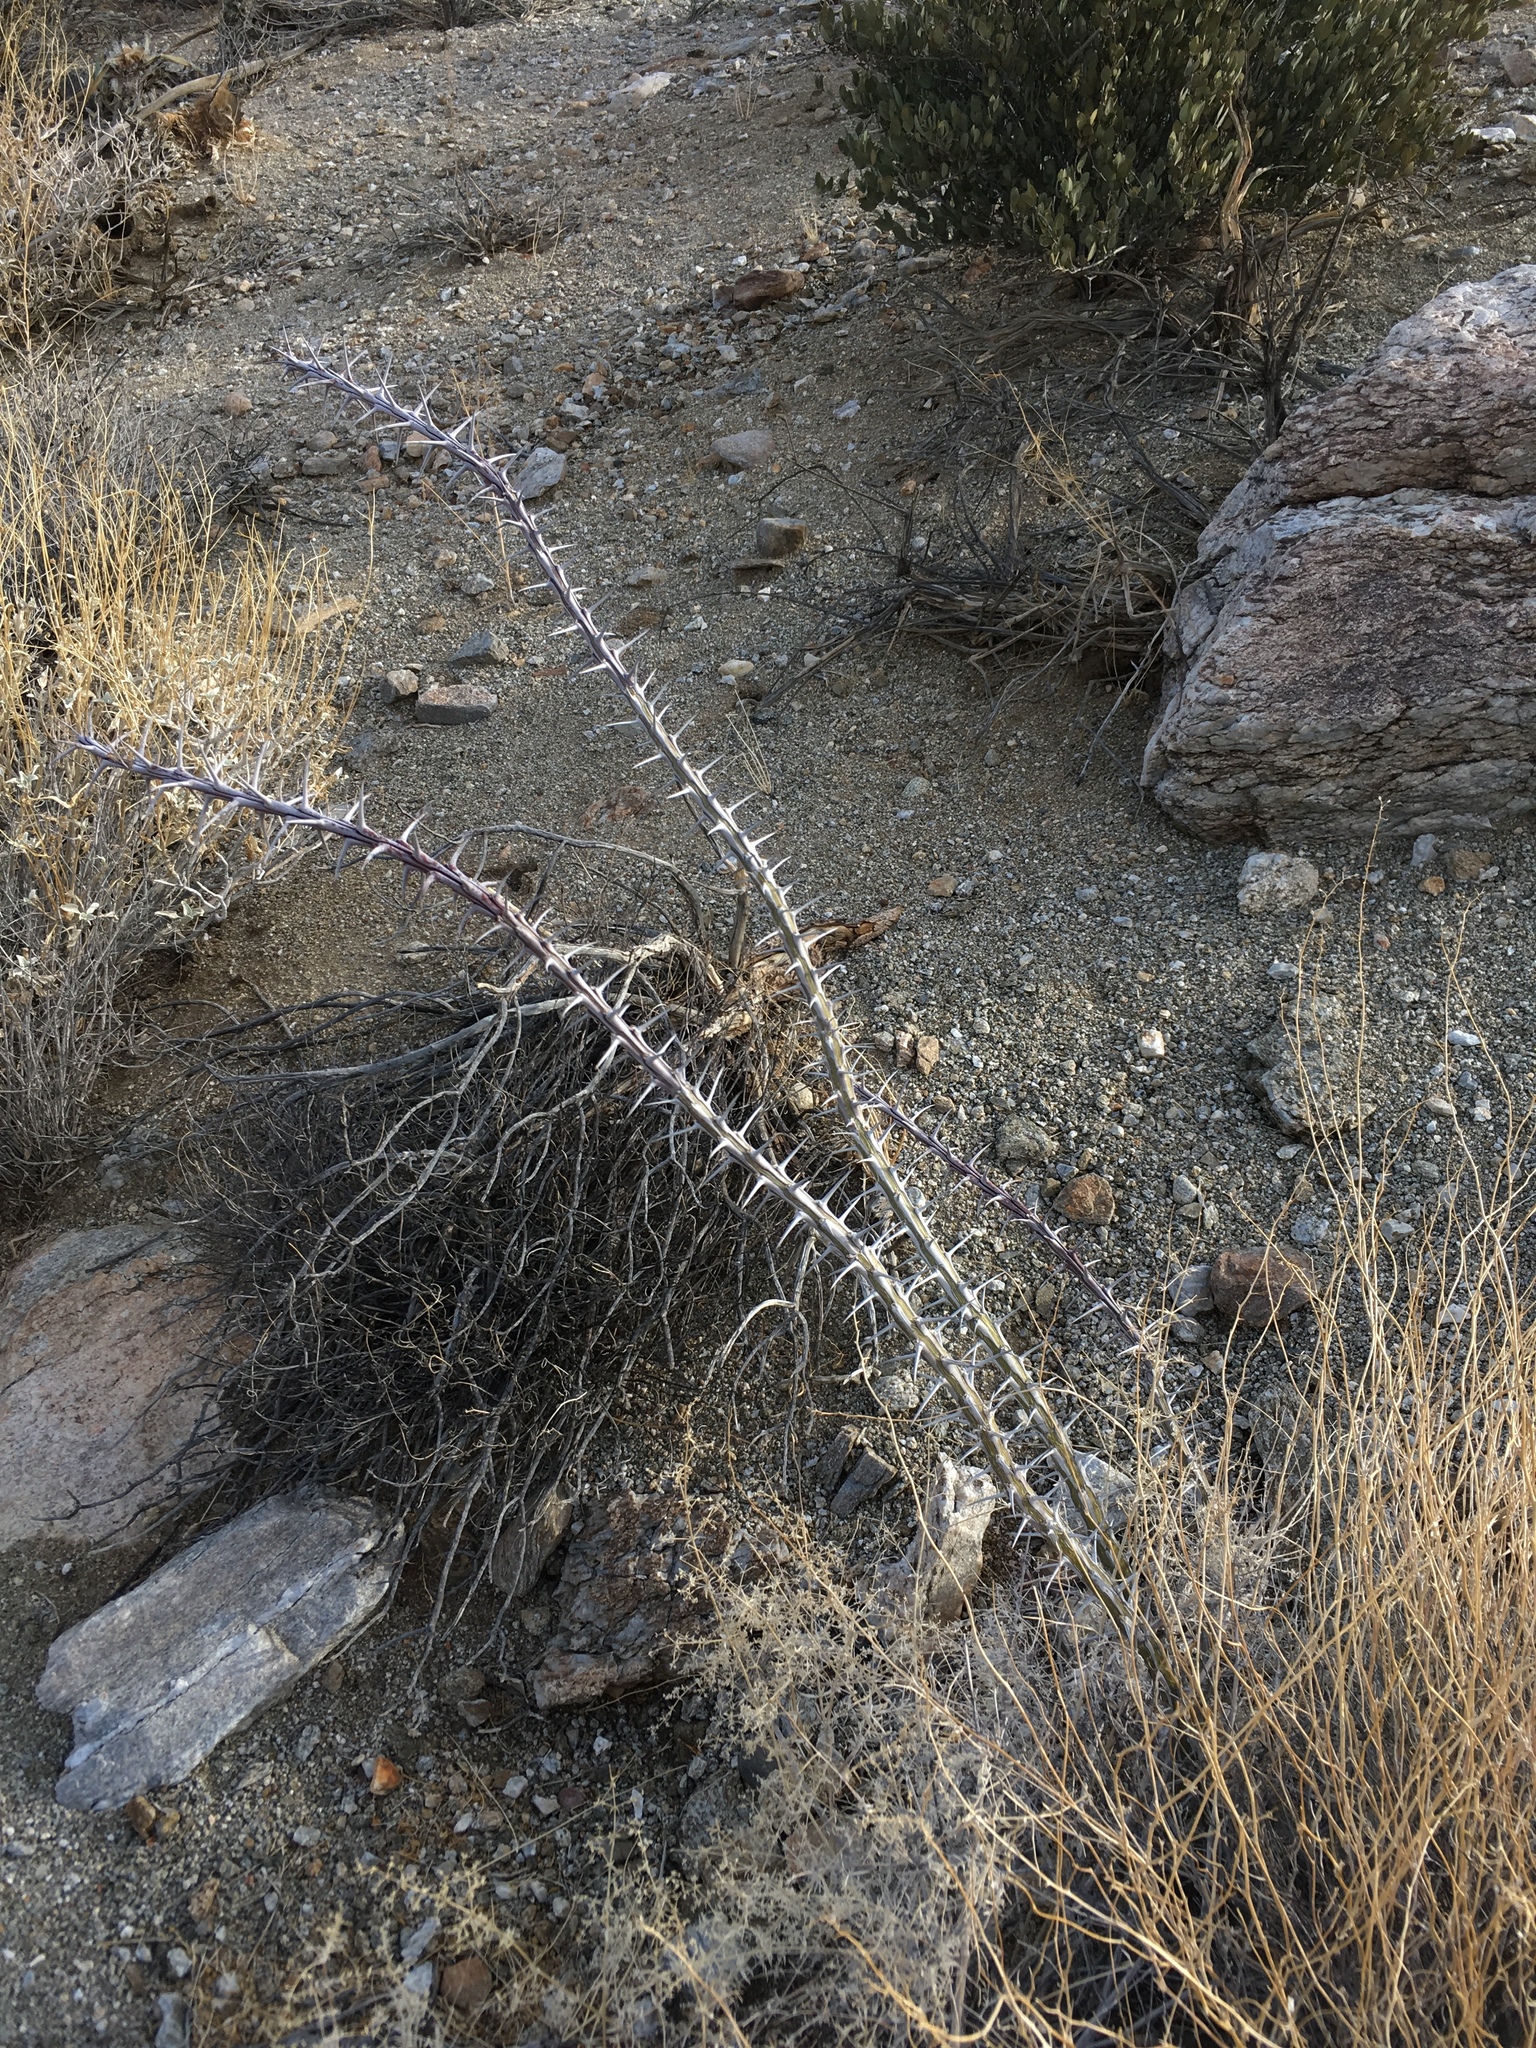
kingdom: Plantae
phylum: Tracheophyta
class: Magnoliopsida
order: Ericales
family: Fouquieriaceae
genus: Fouquieria
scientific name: Fouquieria splendens
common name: Vine-cactus
